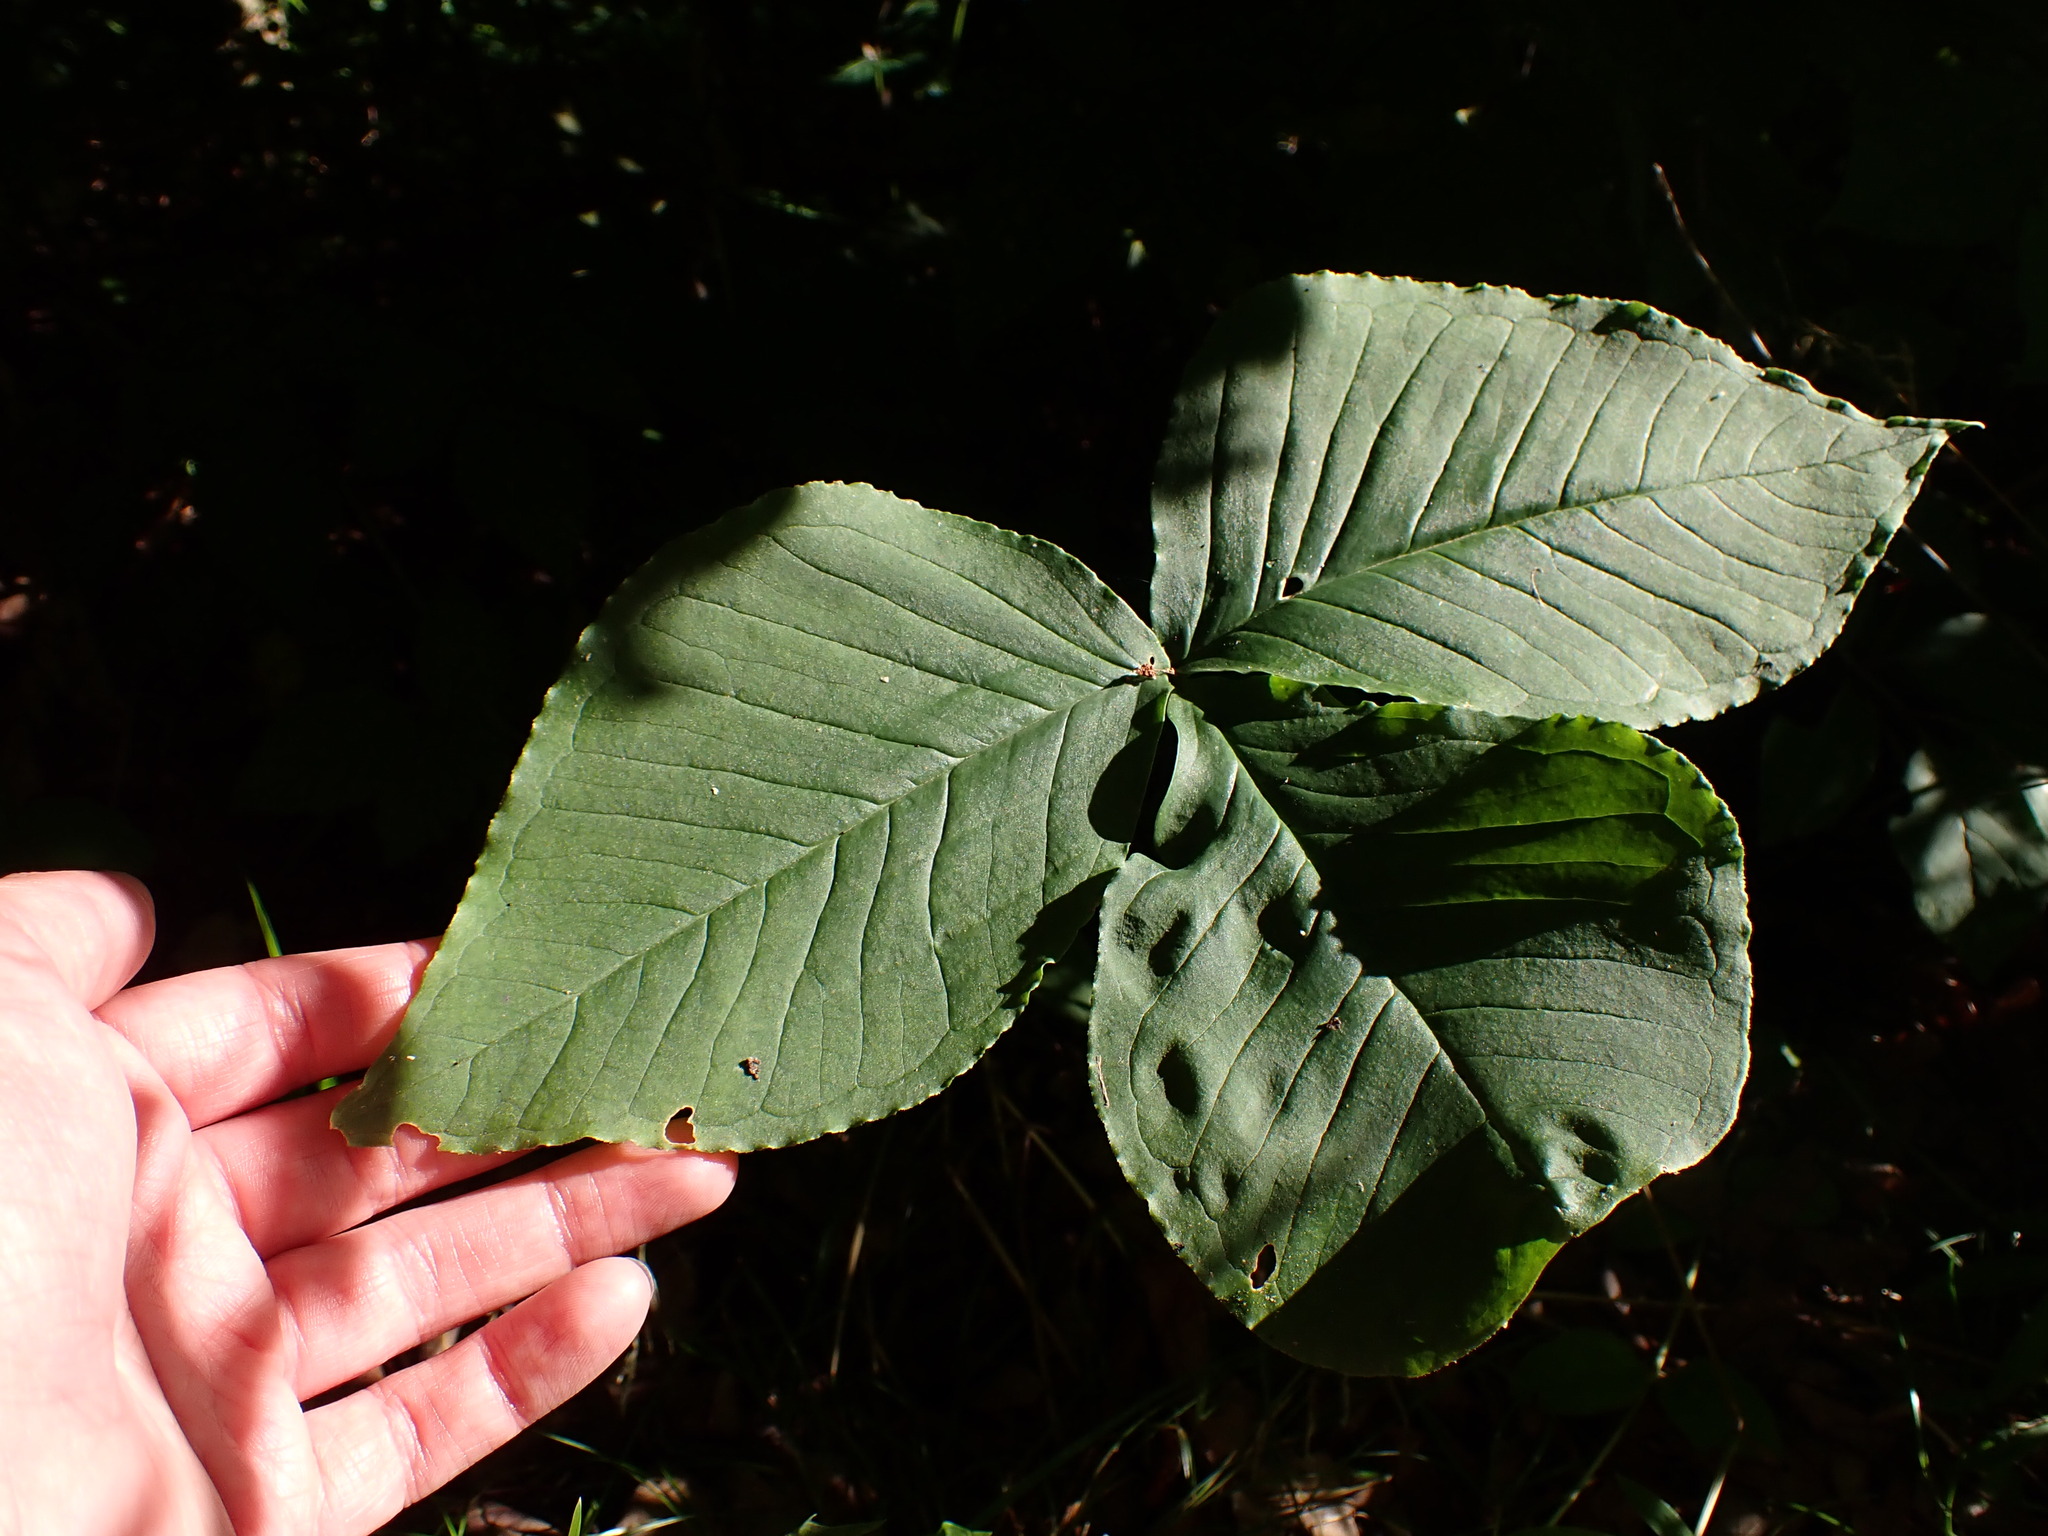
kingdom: Plantae
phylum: Tracheophyta
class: Liliopsida
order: Alismatales
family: Araceae
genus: Arisaema
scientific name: Arisaema triphyllum
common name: Jack-in-the-pulpit
